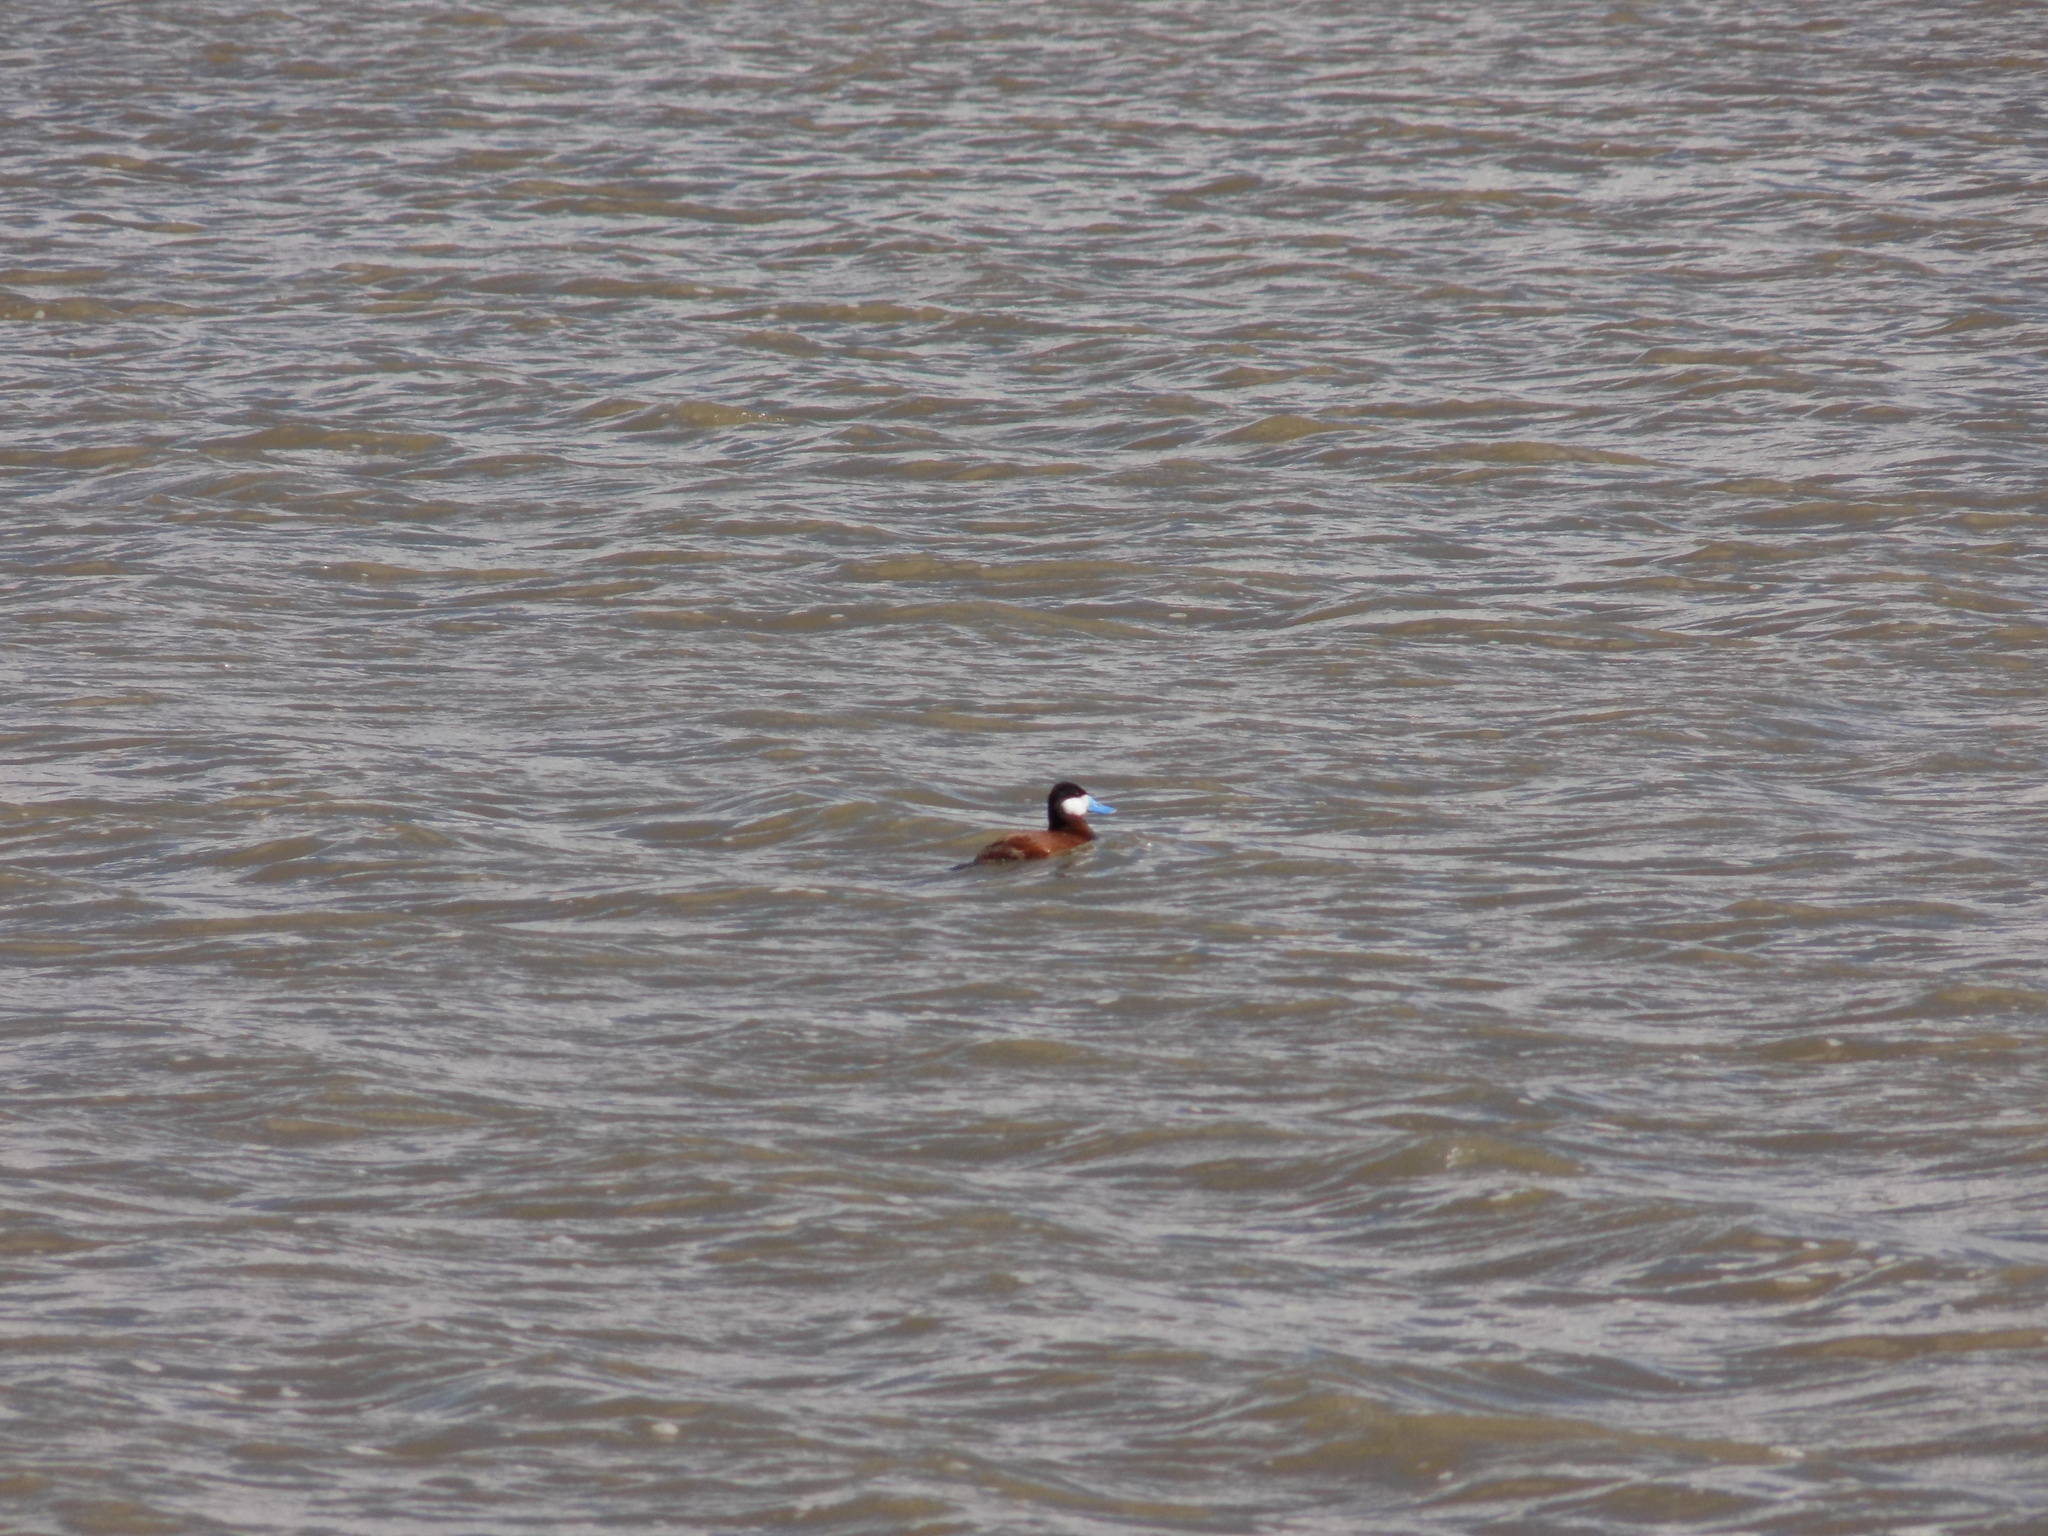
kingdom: Animalia
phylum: Chordata
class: Aves
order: Anseriformes
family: Anatidae
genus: Oxyura
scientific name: Oxyura jamaicensis
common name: Ruddy duck
